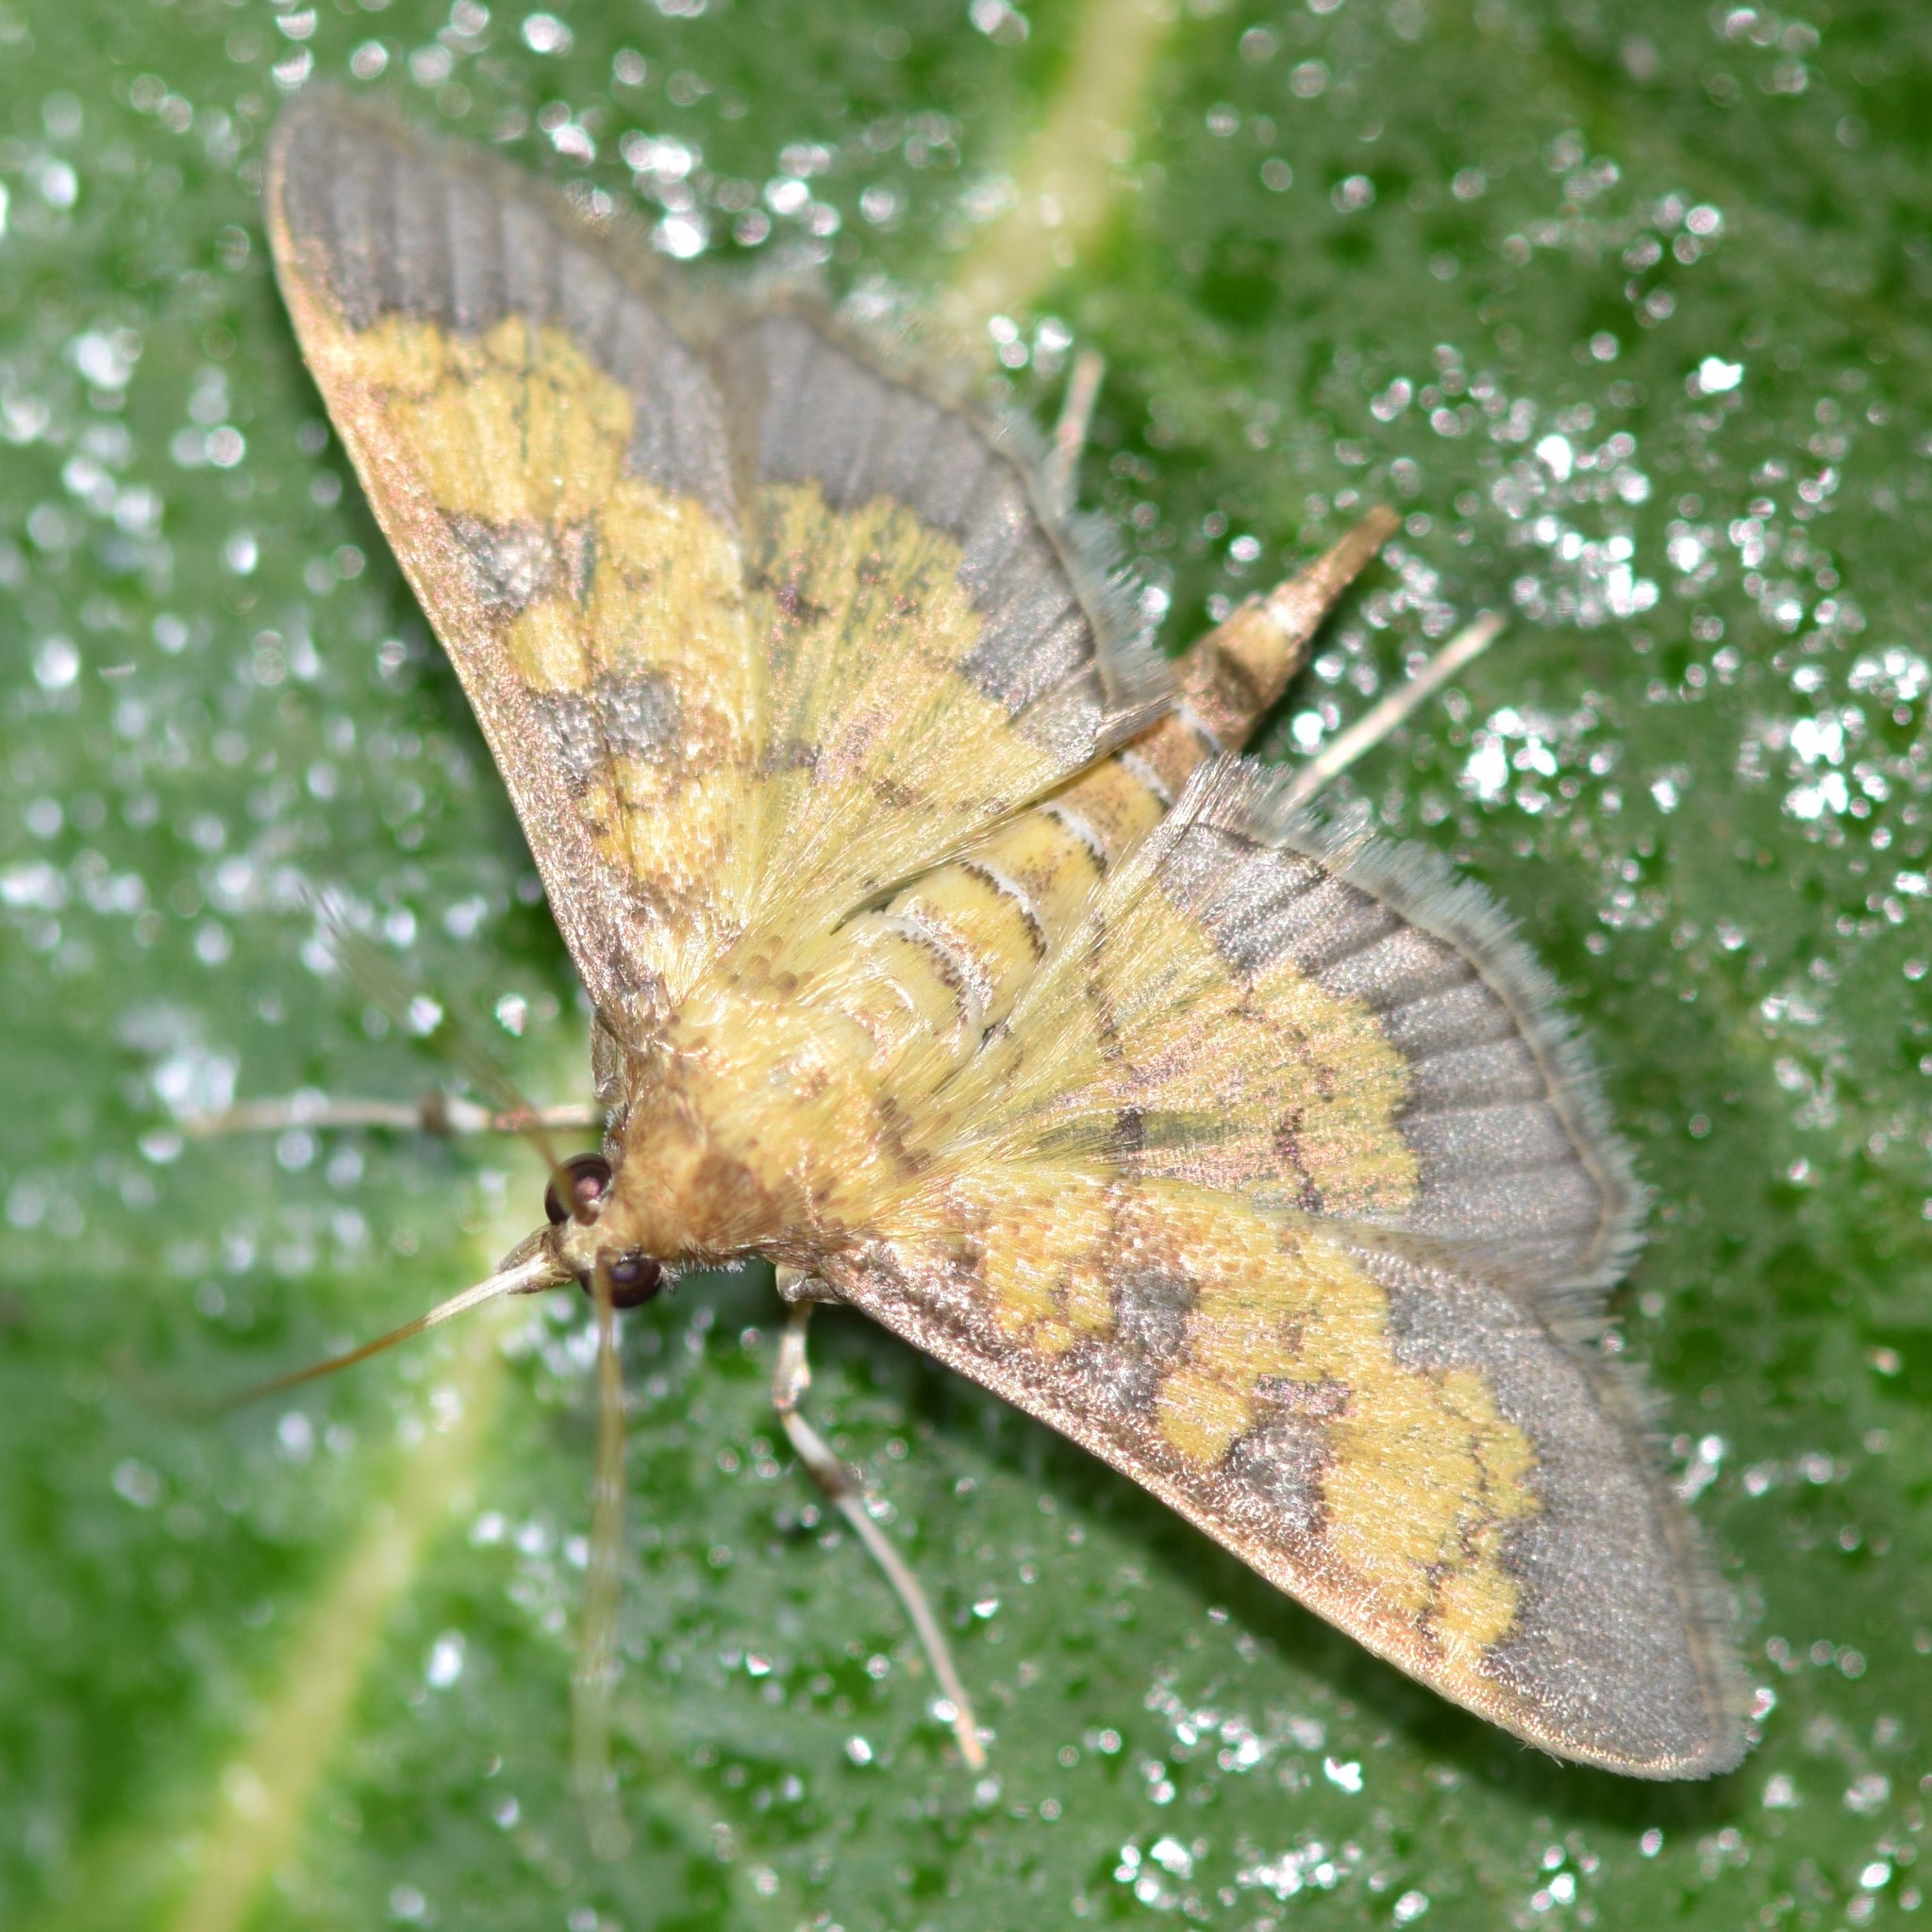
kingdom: Animalia
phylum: Arthropoda
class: Insecta
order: Lepidoptera
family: Crambidae
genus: Epipagis
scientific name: Epipagis adipaloides
